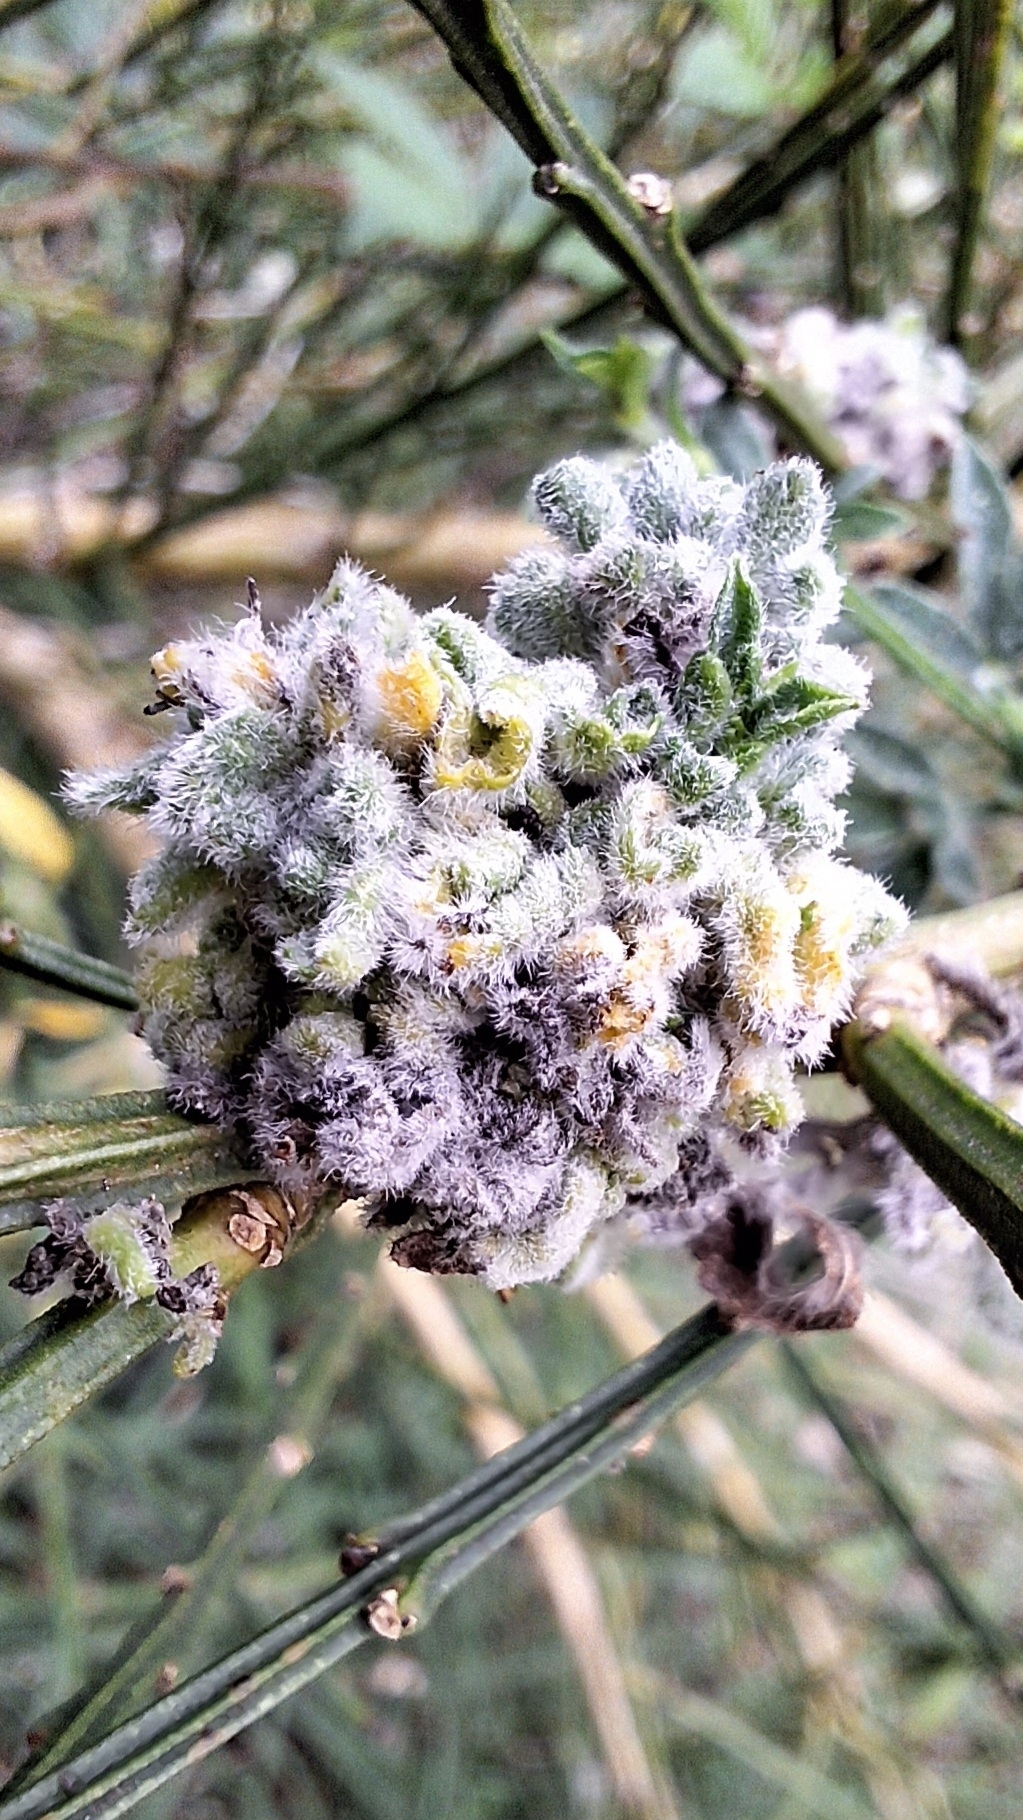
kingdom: Animalia
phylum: Arthropoda
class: Arachnida
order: Trombidiformes
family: Eriophyidae
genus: Aceria
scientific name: Aceria genistae
